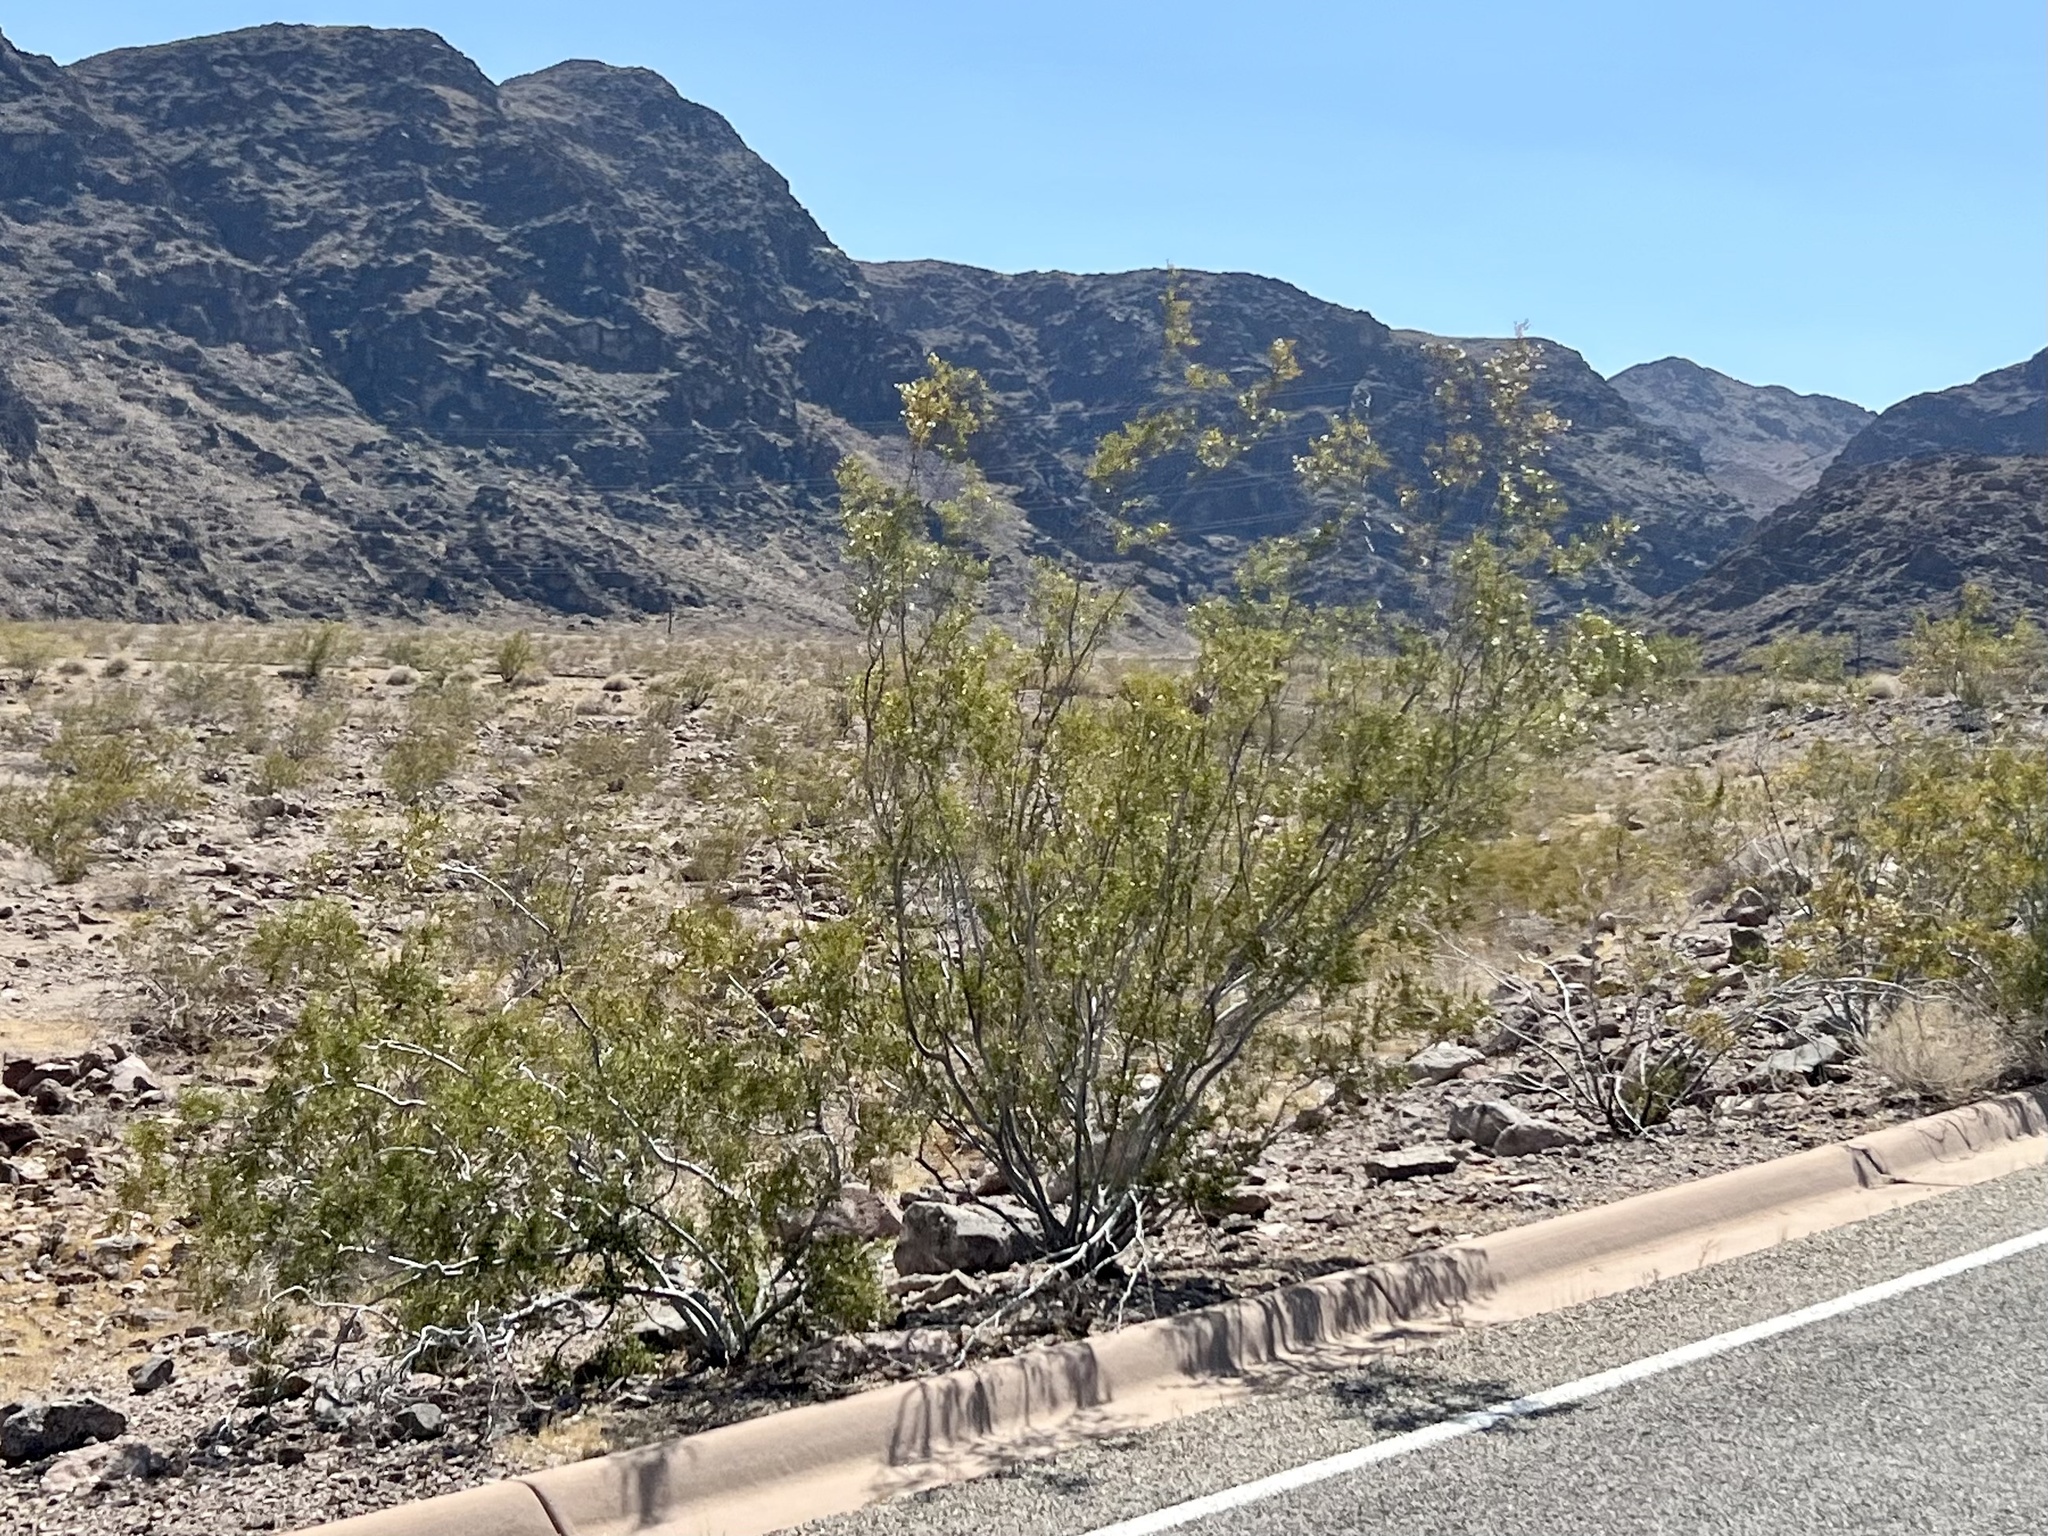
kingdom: Plantae
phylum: Tracheophyta
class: Magnoliopsida
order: Zygophyllales
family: Zygophyllaceae
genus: Larrea
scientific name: Larrea tridentata
